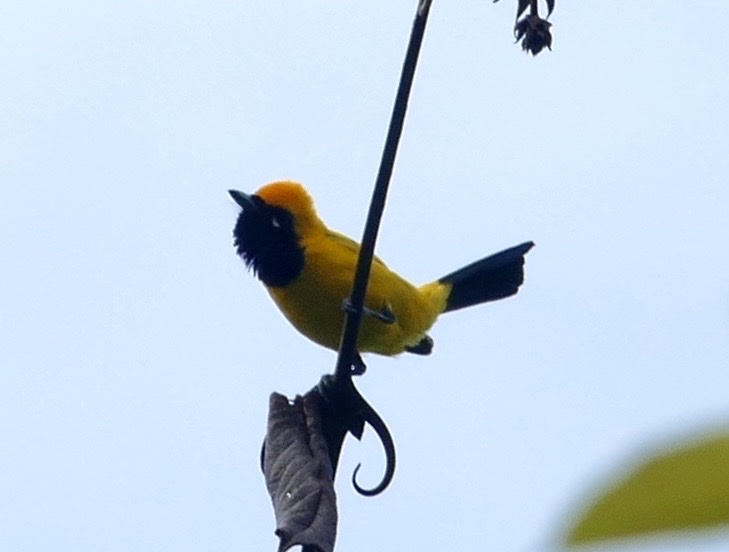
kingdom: Animalia
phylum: Chordata
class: Aves
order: Passeriformes
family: Monarchidae
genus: Carterornis
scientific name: Carterornis chrysomela
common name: Golden monarch
